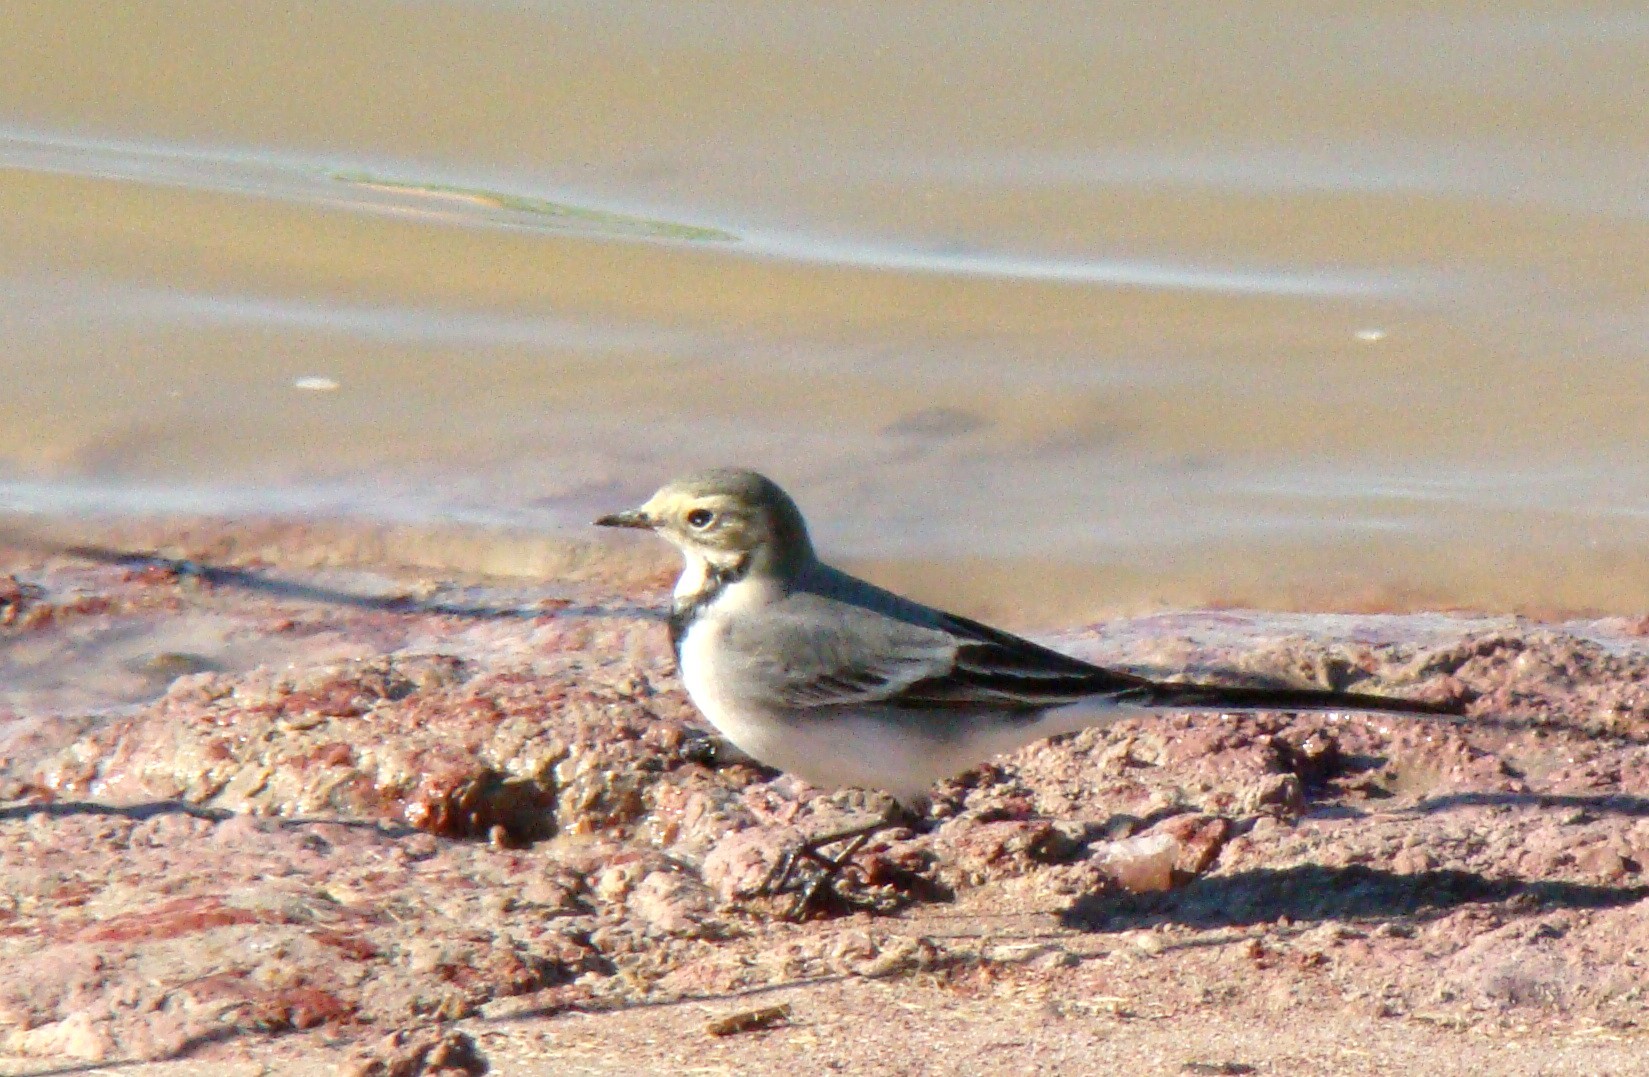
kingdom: Animalia
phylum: Chordata
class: Aves
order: Passeriformes
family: Motacillidae
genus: Motacilla
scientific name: Motacilla alba
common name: White wagtail
